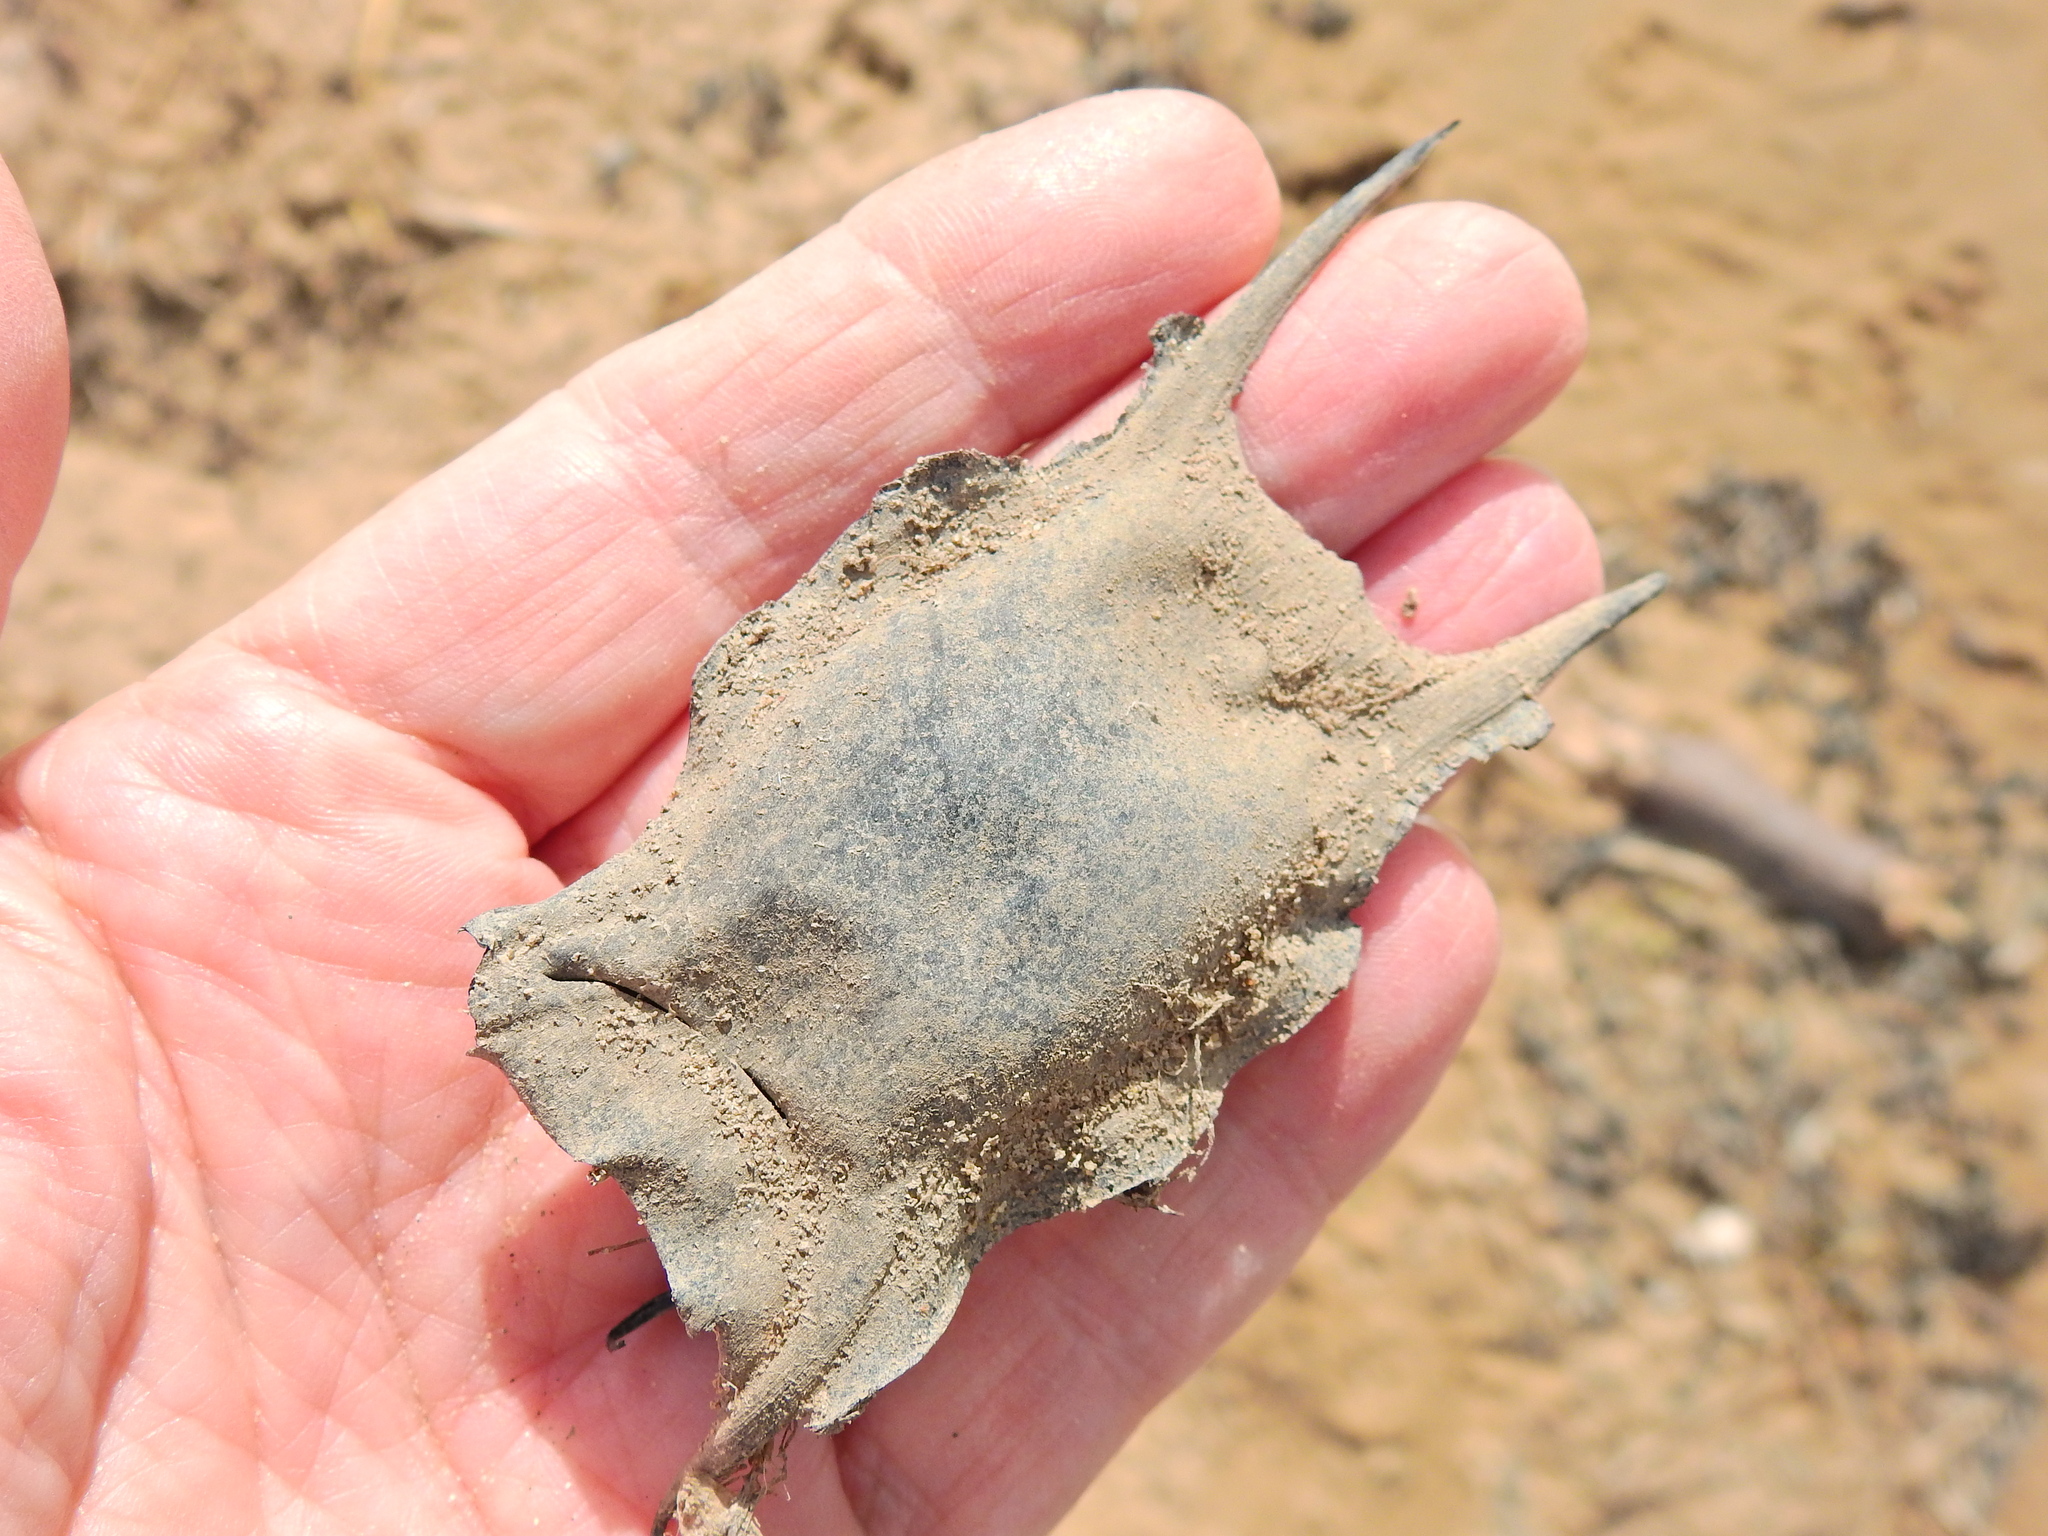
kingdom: Animalia
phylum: Chordata
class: Elasmobranchii
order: Rajiformes
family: Rajidae
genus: Raja
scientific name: Raja clavata
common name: Thornback ray
